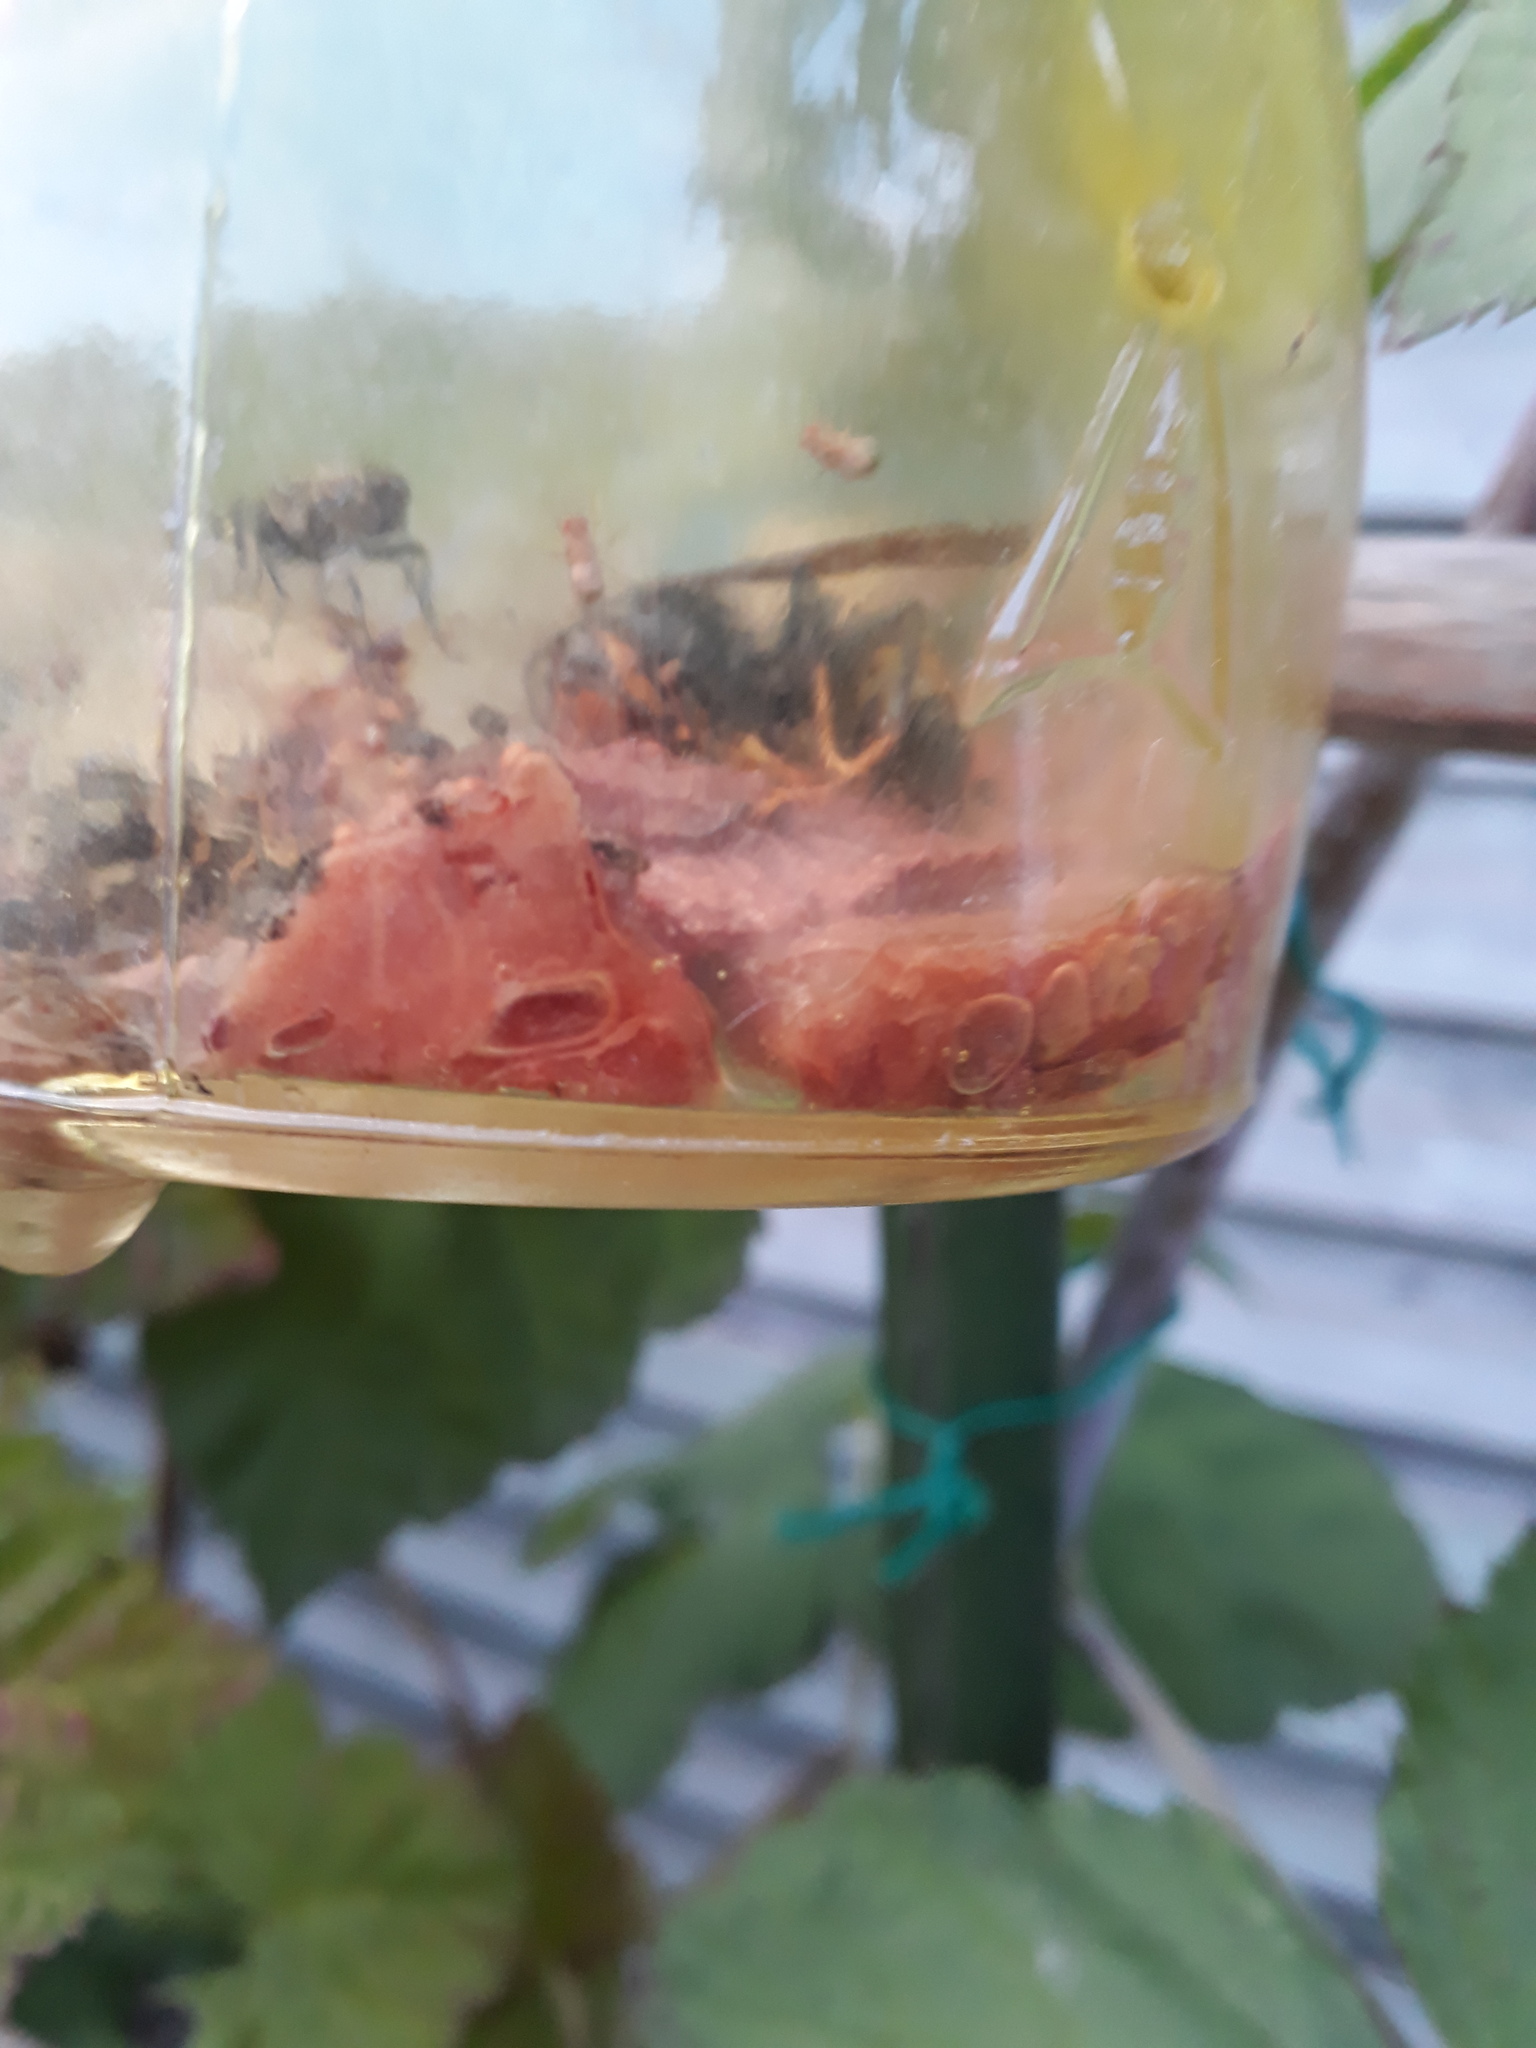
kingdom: Animalia
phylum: Arthropoda
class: Insecta
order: Hymenoptera
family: Vespidae
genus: Vespa
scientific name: Vespa velutina
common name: Asian hornet
